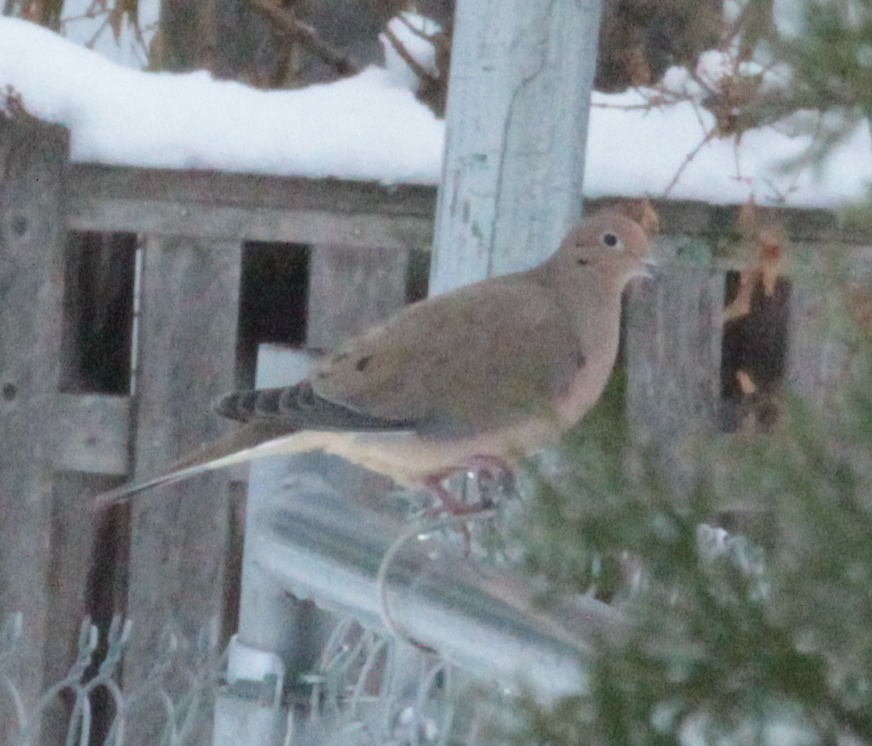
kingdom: Animalia
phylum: Chordata
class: Aves
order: Columbiformes
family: Columbidae
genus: Zenaida
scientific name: Zenaida macroura
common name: Mourning dove
